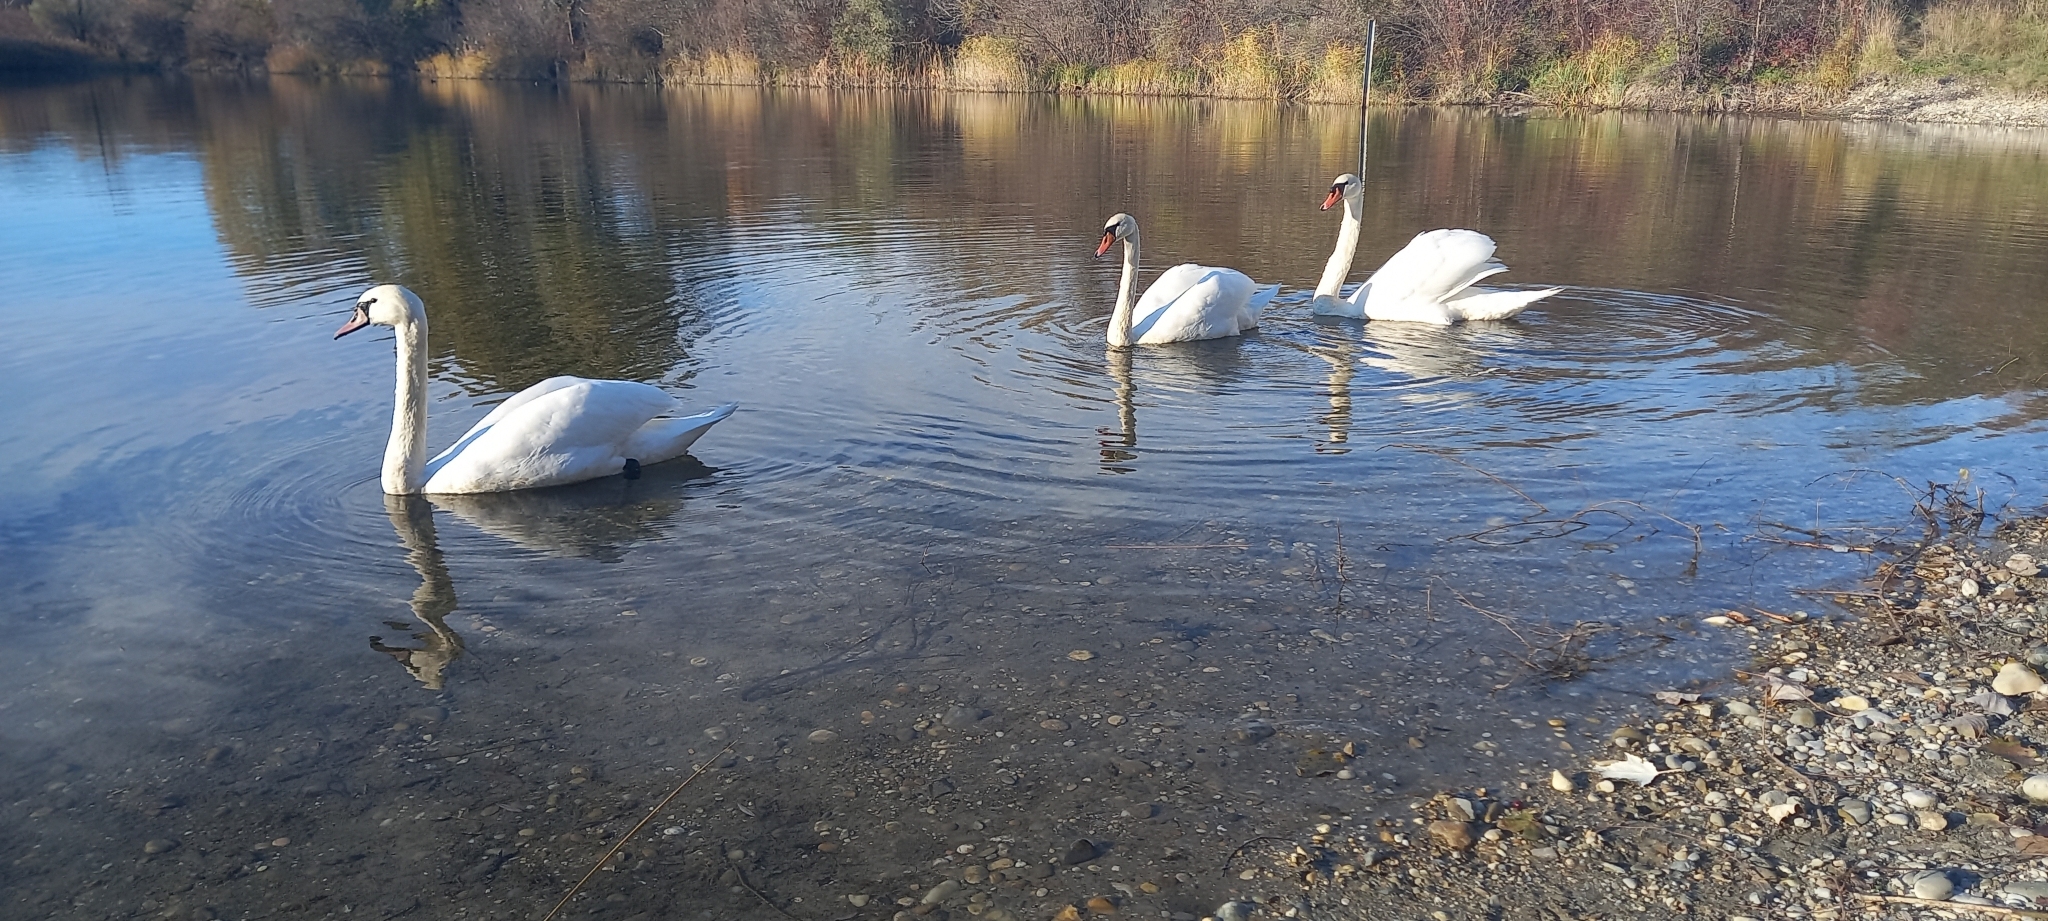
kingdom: Animalia
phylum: Chordata
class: Aves
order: Anseriformes
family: Anatidae
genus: Cygnus
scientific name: Cygnus olor
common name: Mute swan
